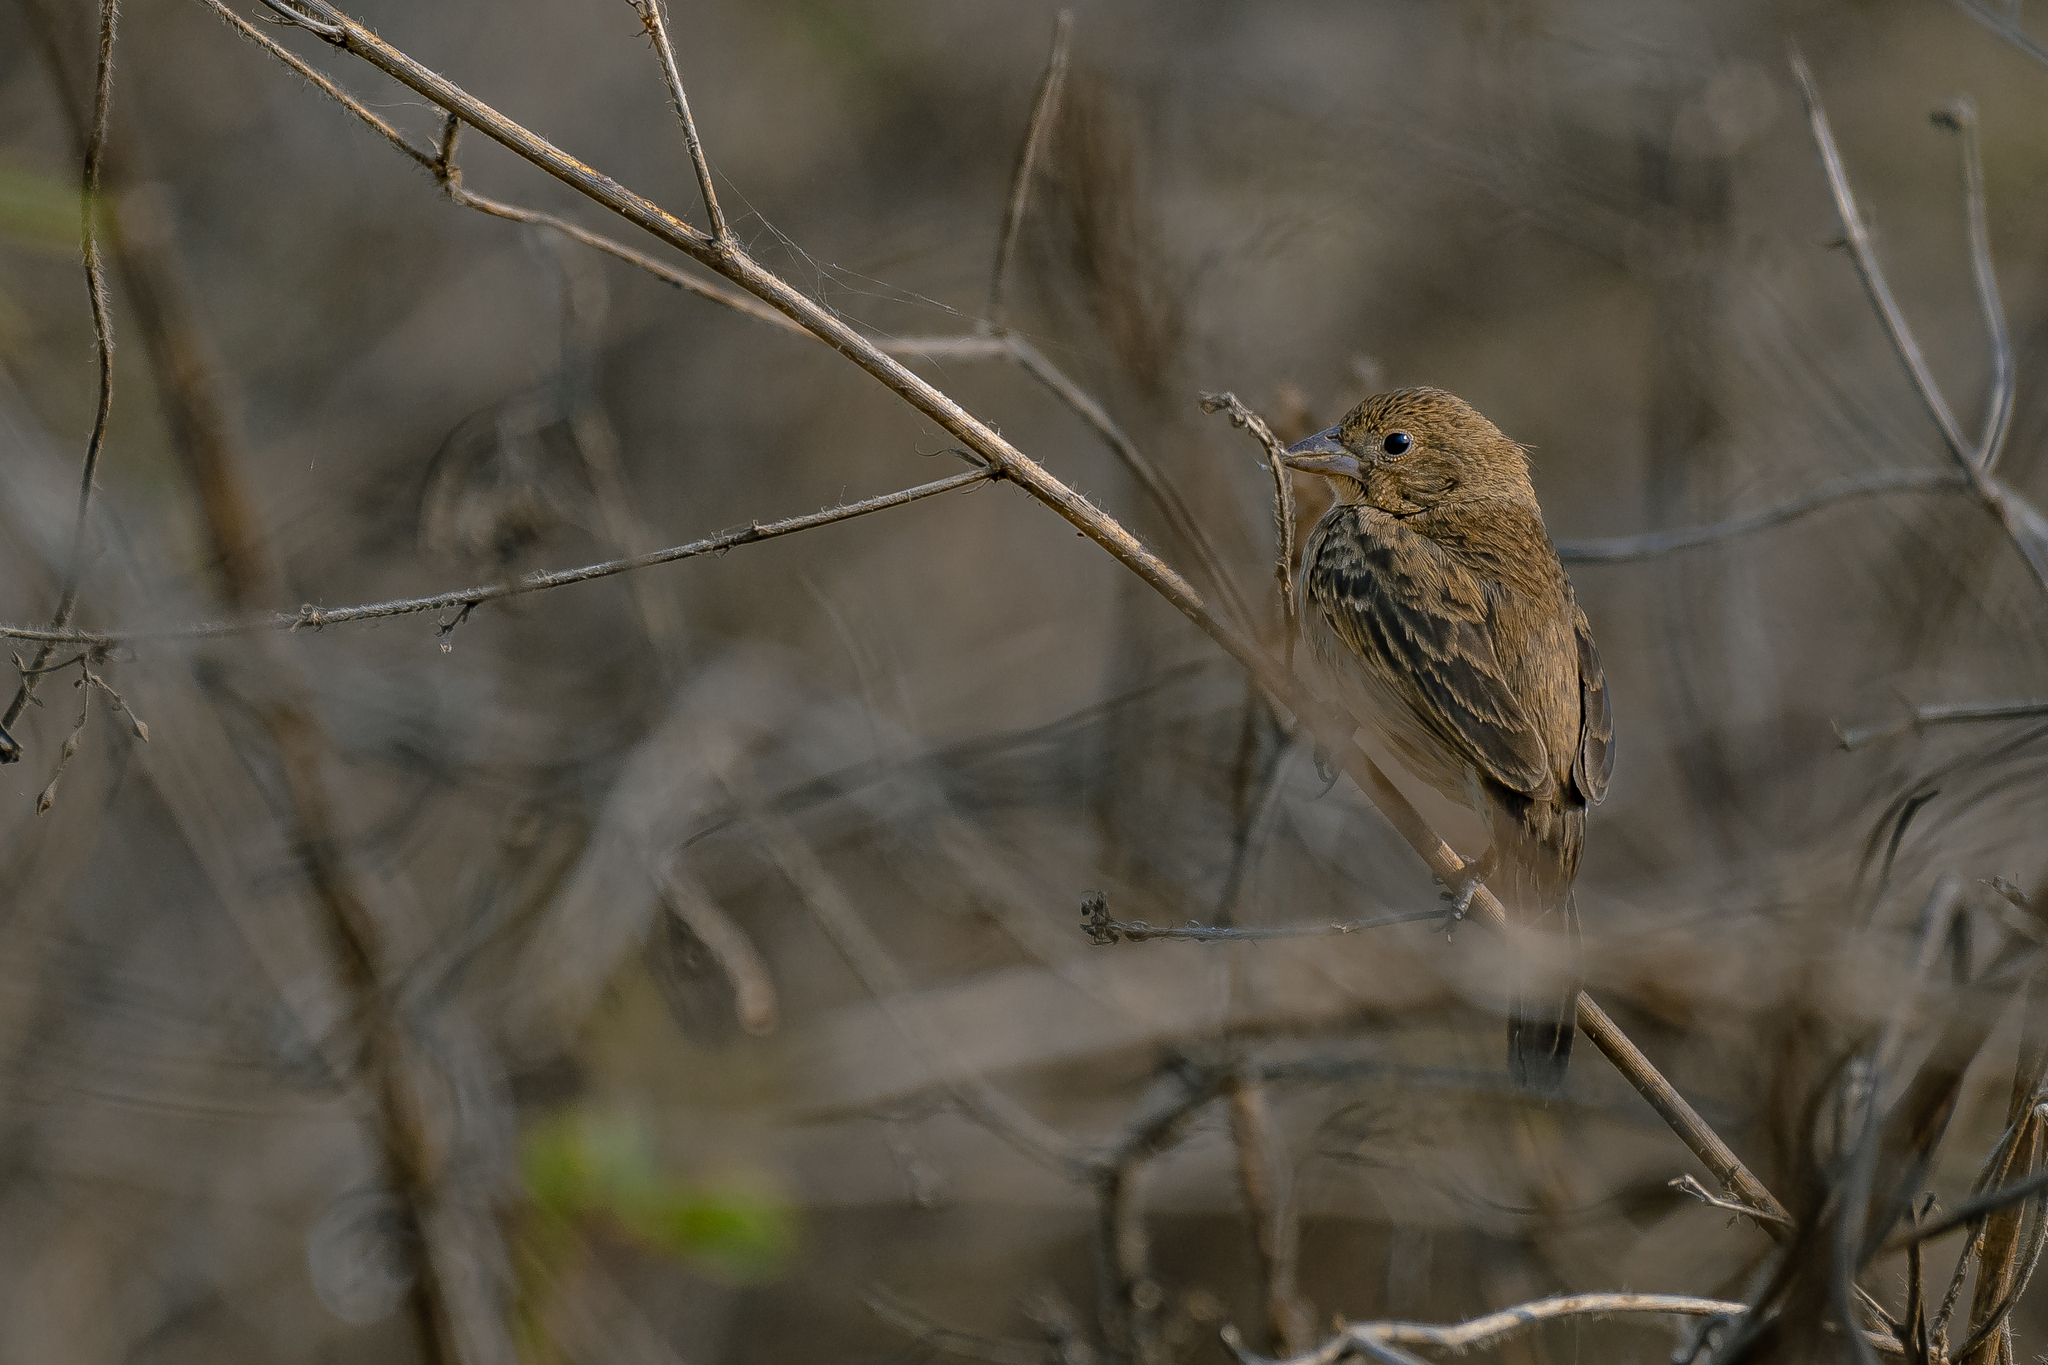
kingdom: Animalia
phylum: Chordata
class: Aves
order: Passeriformes
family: Thraupidae
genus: Volatinia
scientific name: Volatinia jacarina
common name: Blue-black grassquit
